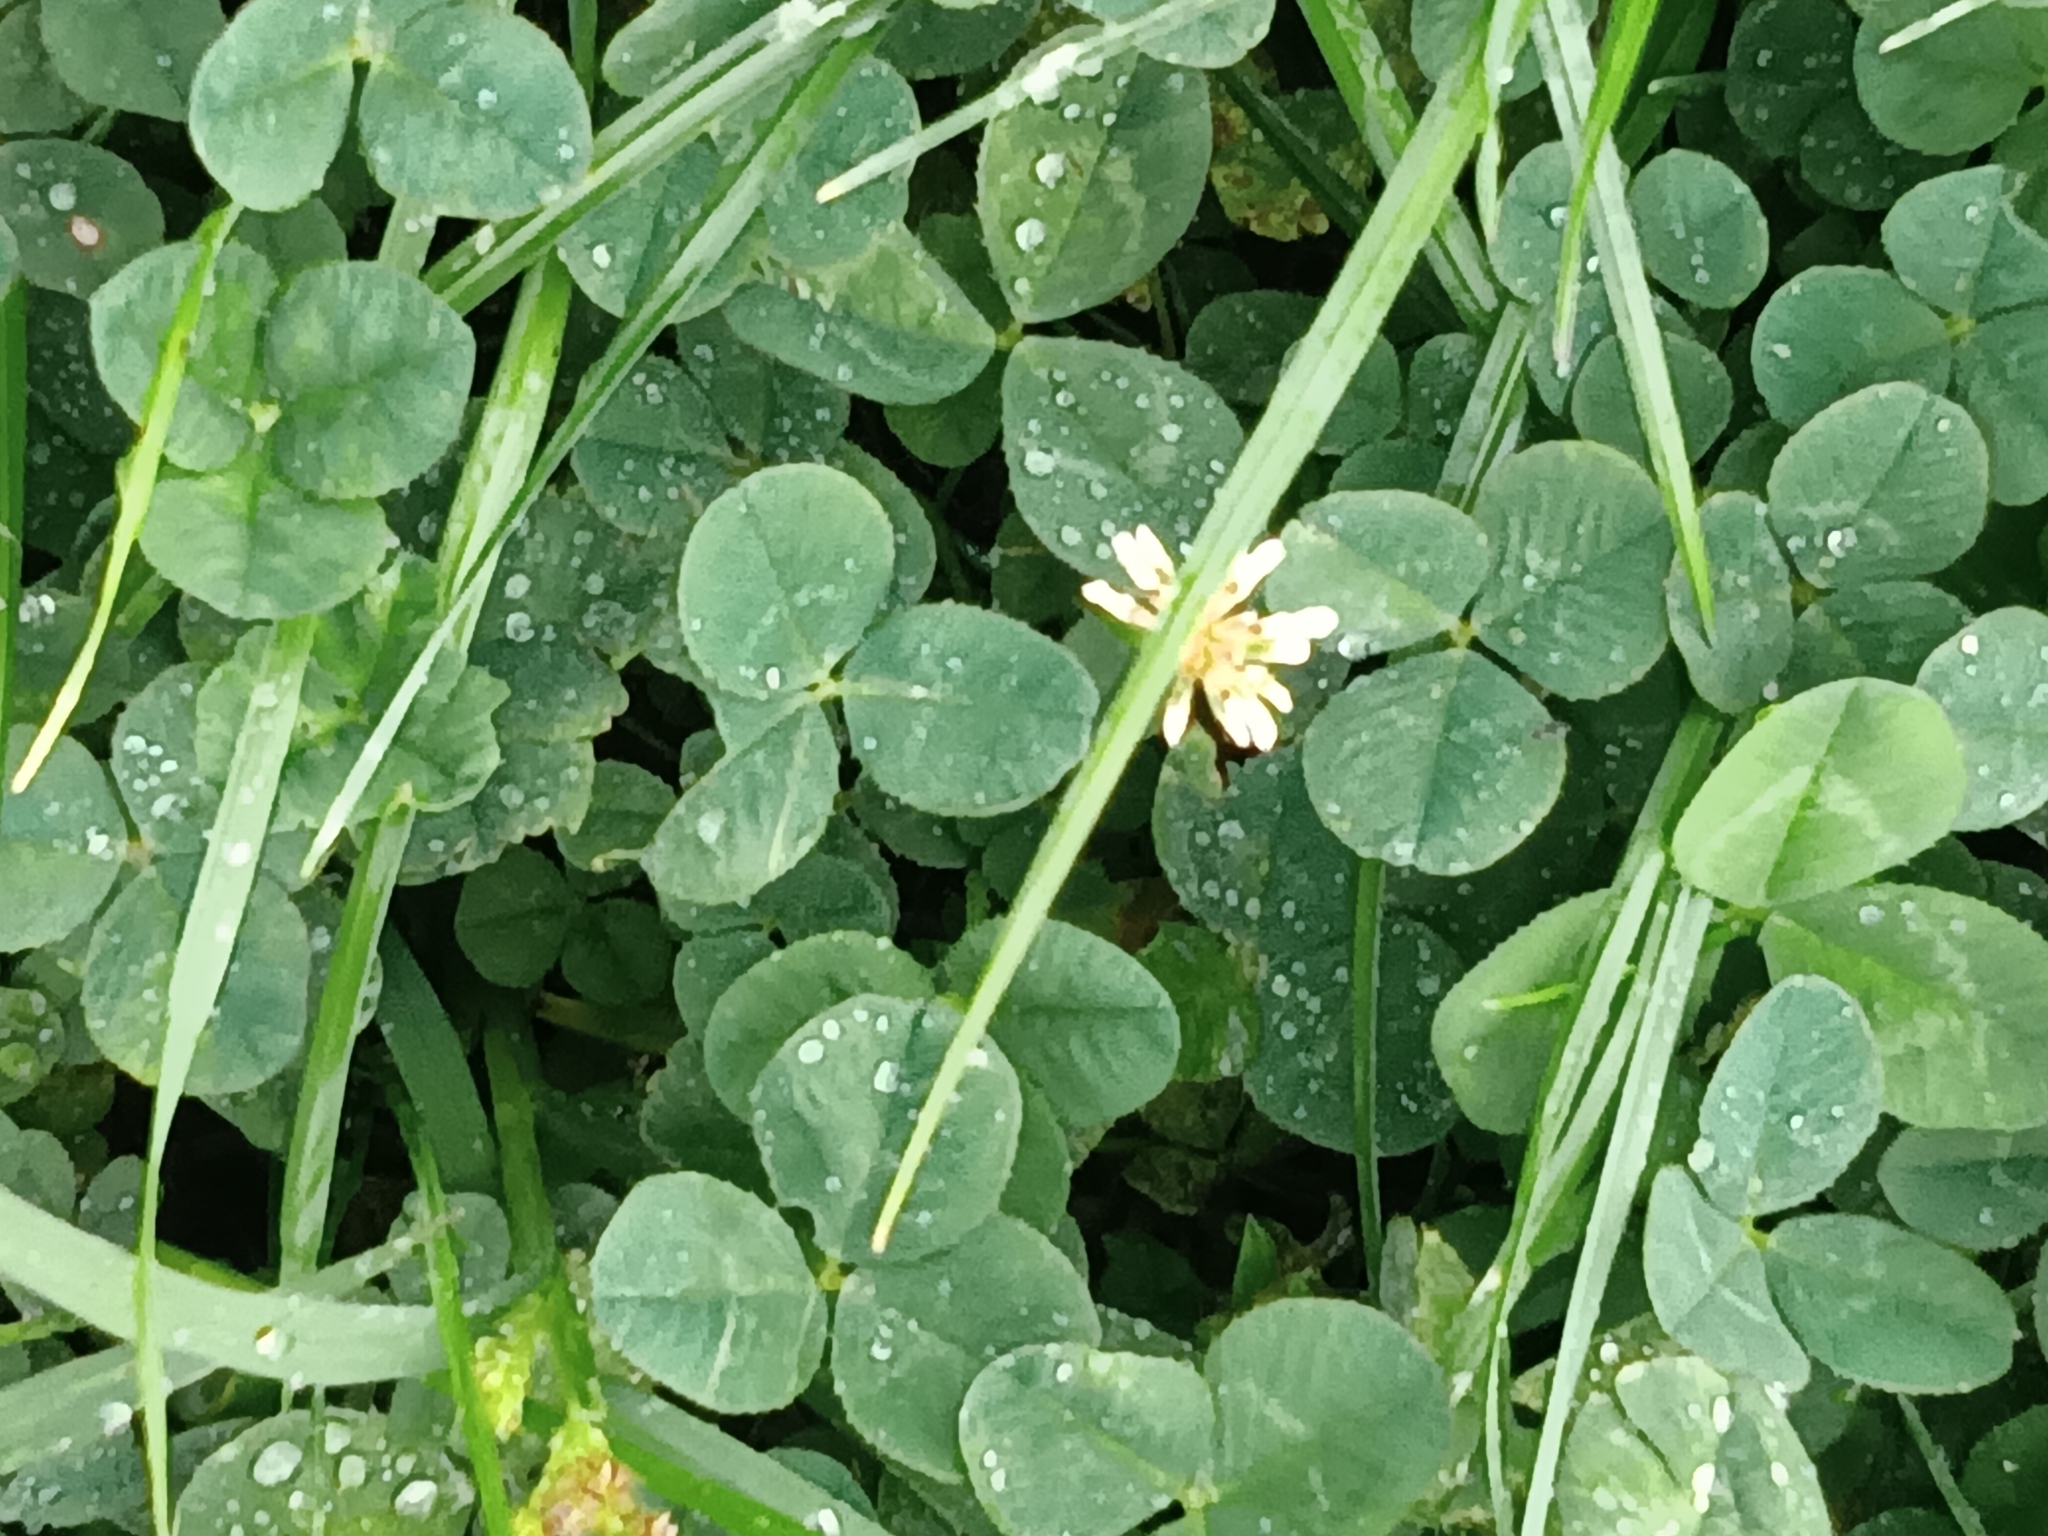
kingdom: Plantae
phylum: Tracheophyta
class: Magnoliopsida
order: Fabales
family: Fabaceae
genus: Trifolium
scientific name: Trifolium repens
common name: White clover
